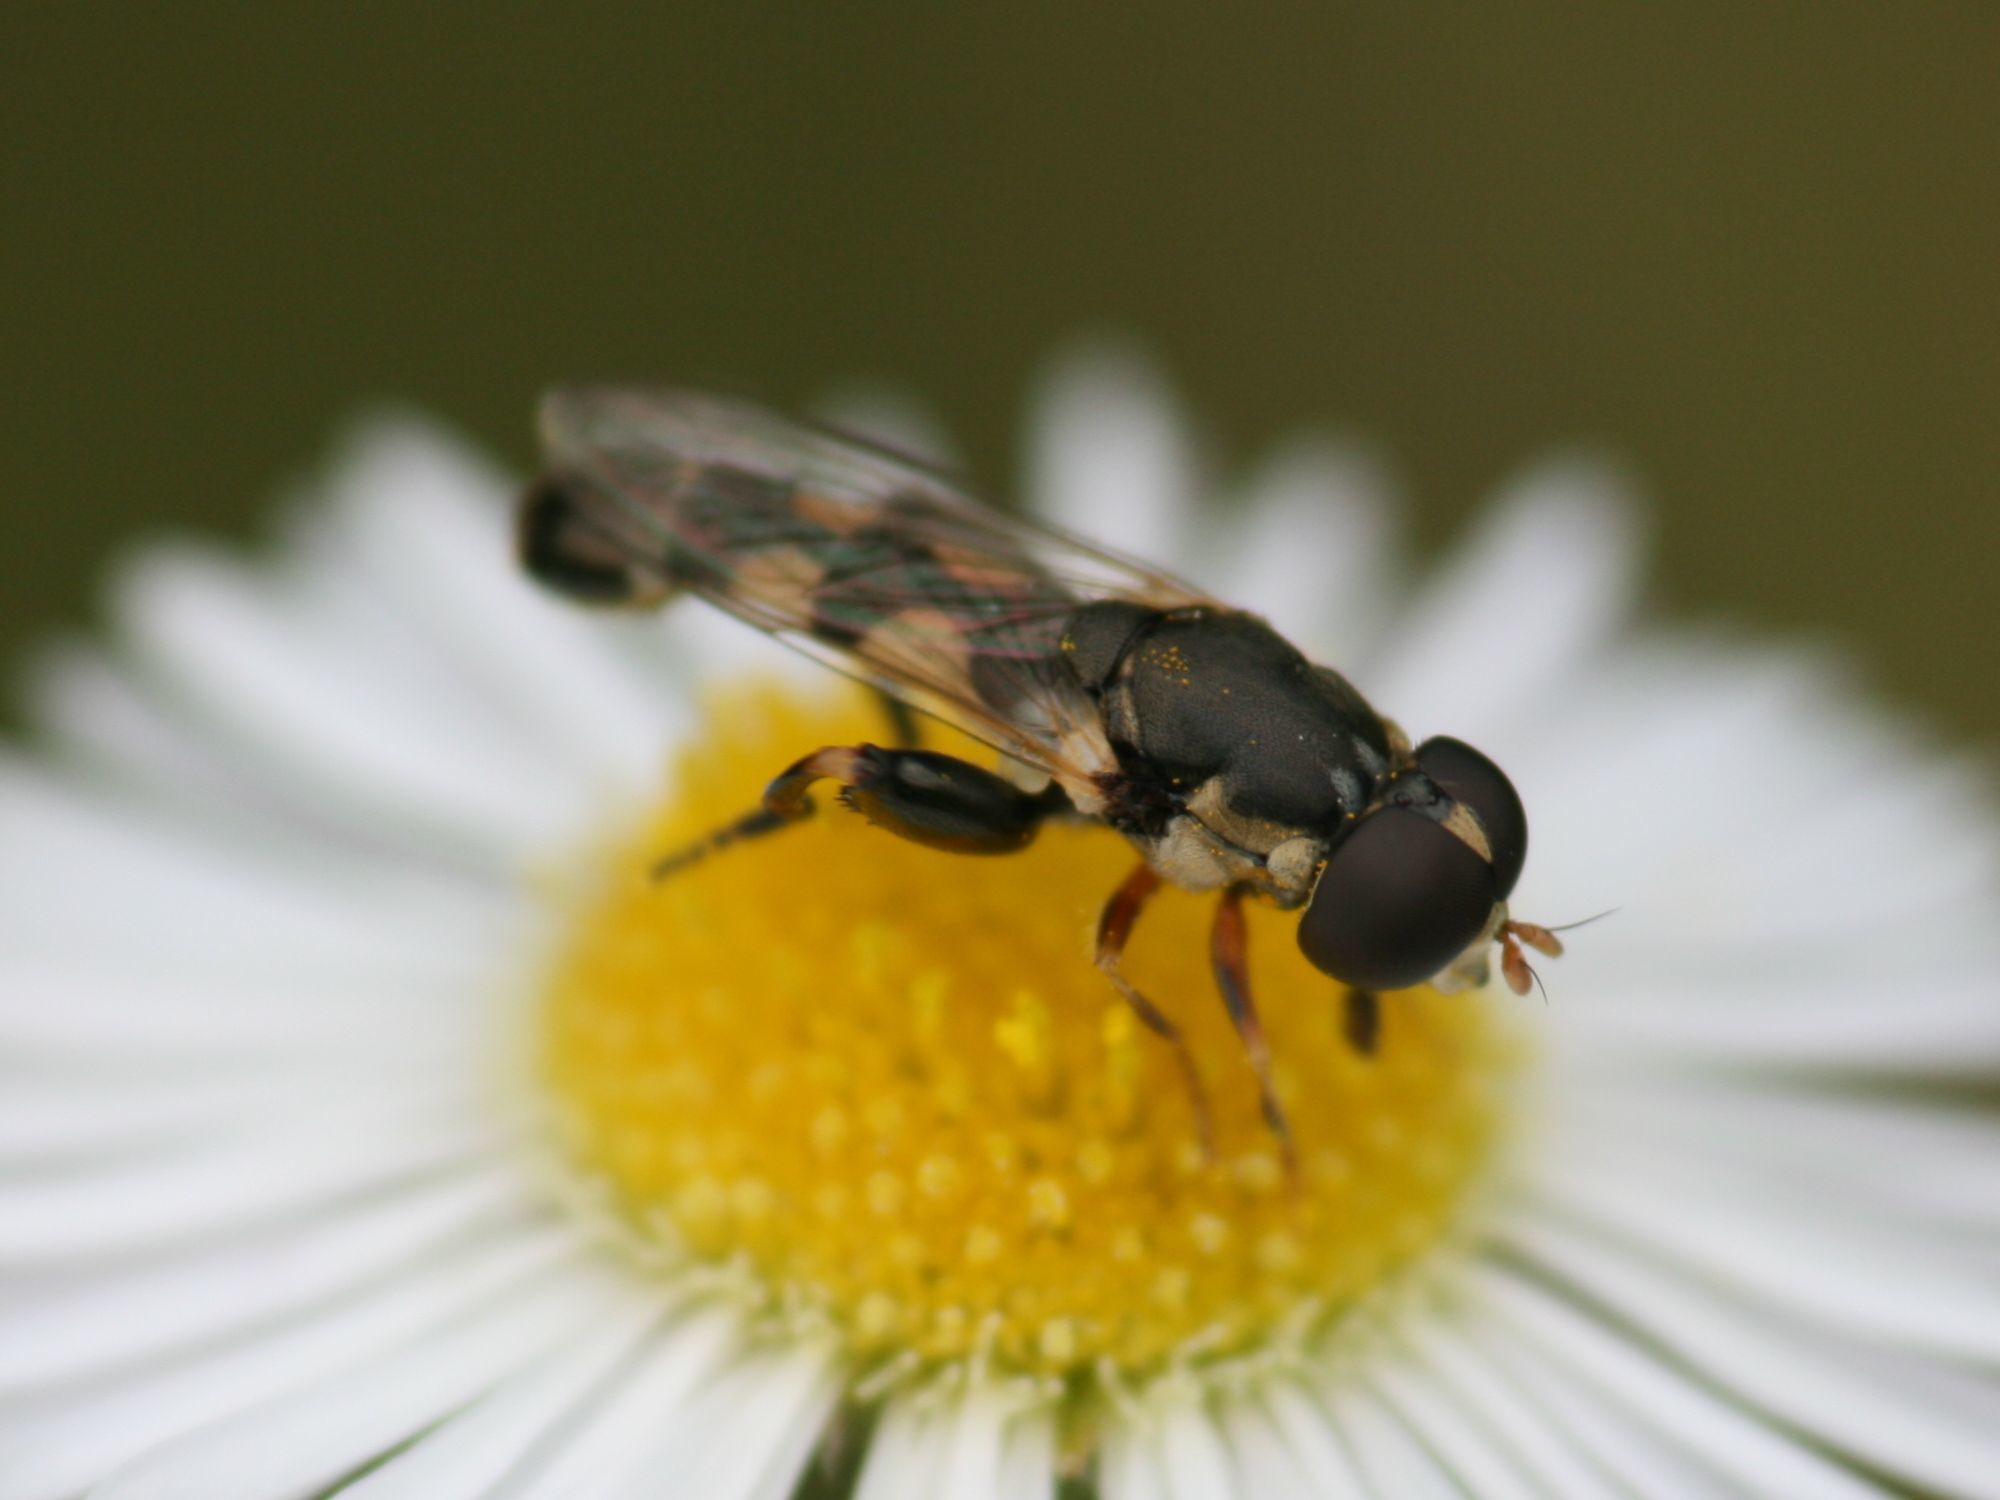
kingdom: Animalia
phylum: Arthropoda
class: Insecta
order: Diptera
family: Syrphidae
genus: Syritta
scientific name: Syritta pipiens
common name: Hover fly
